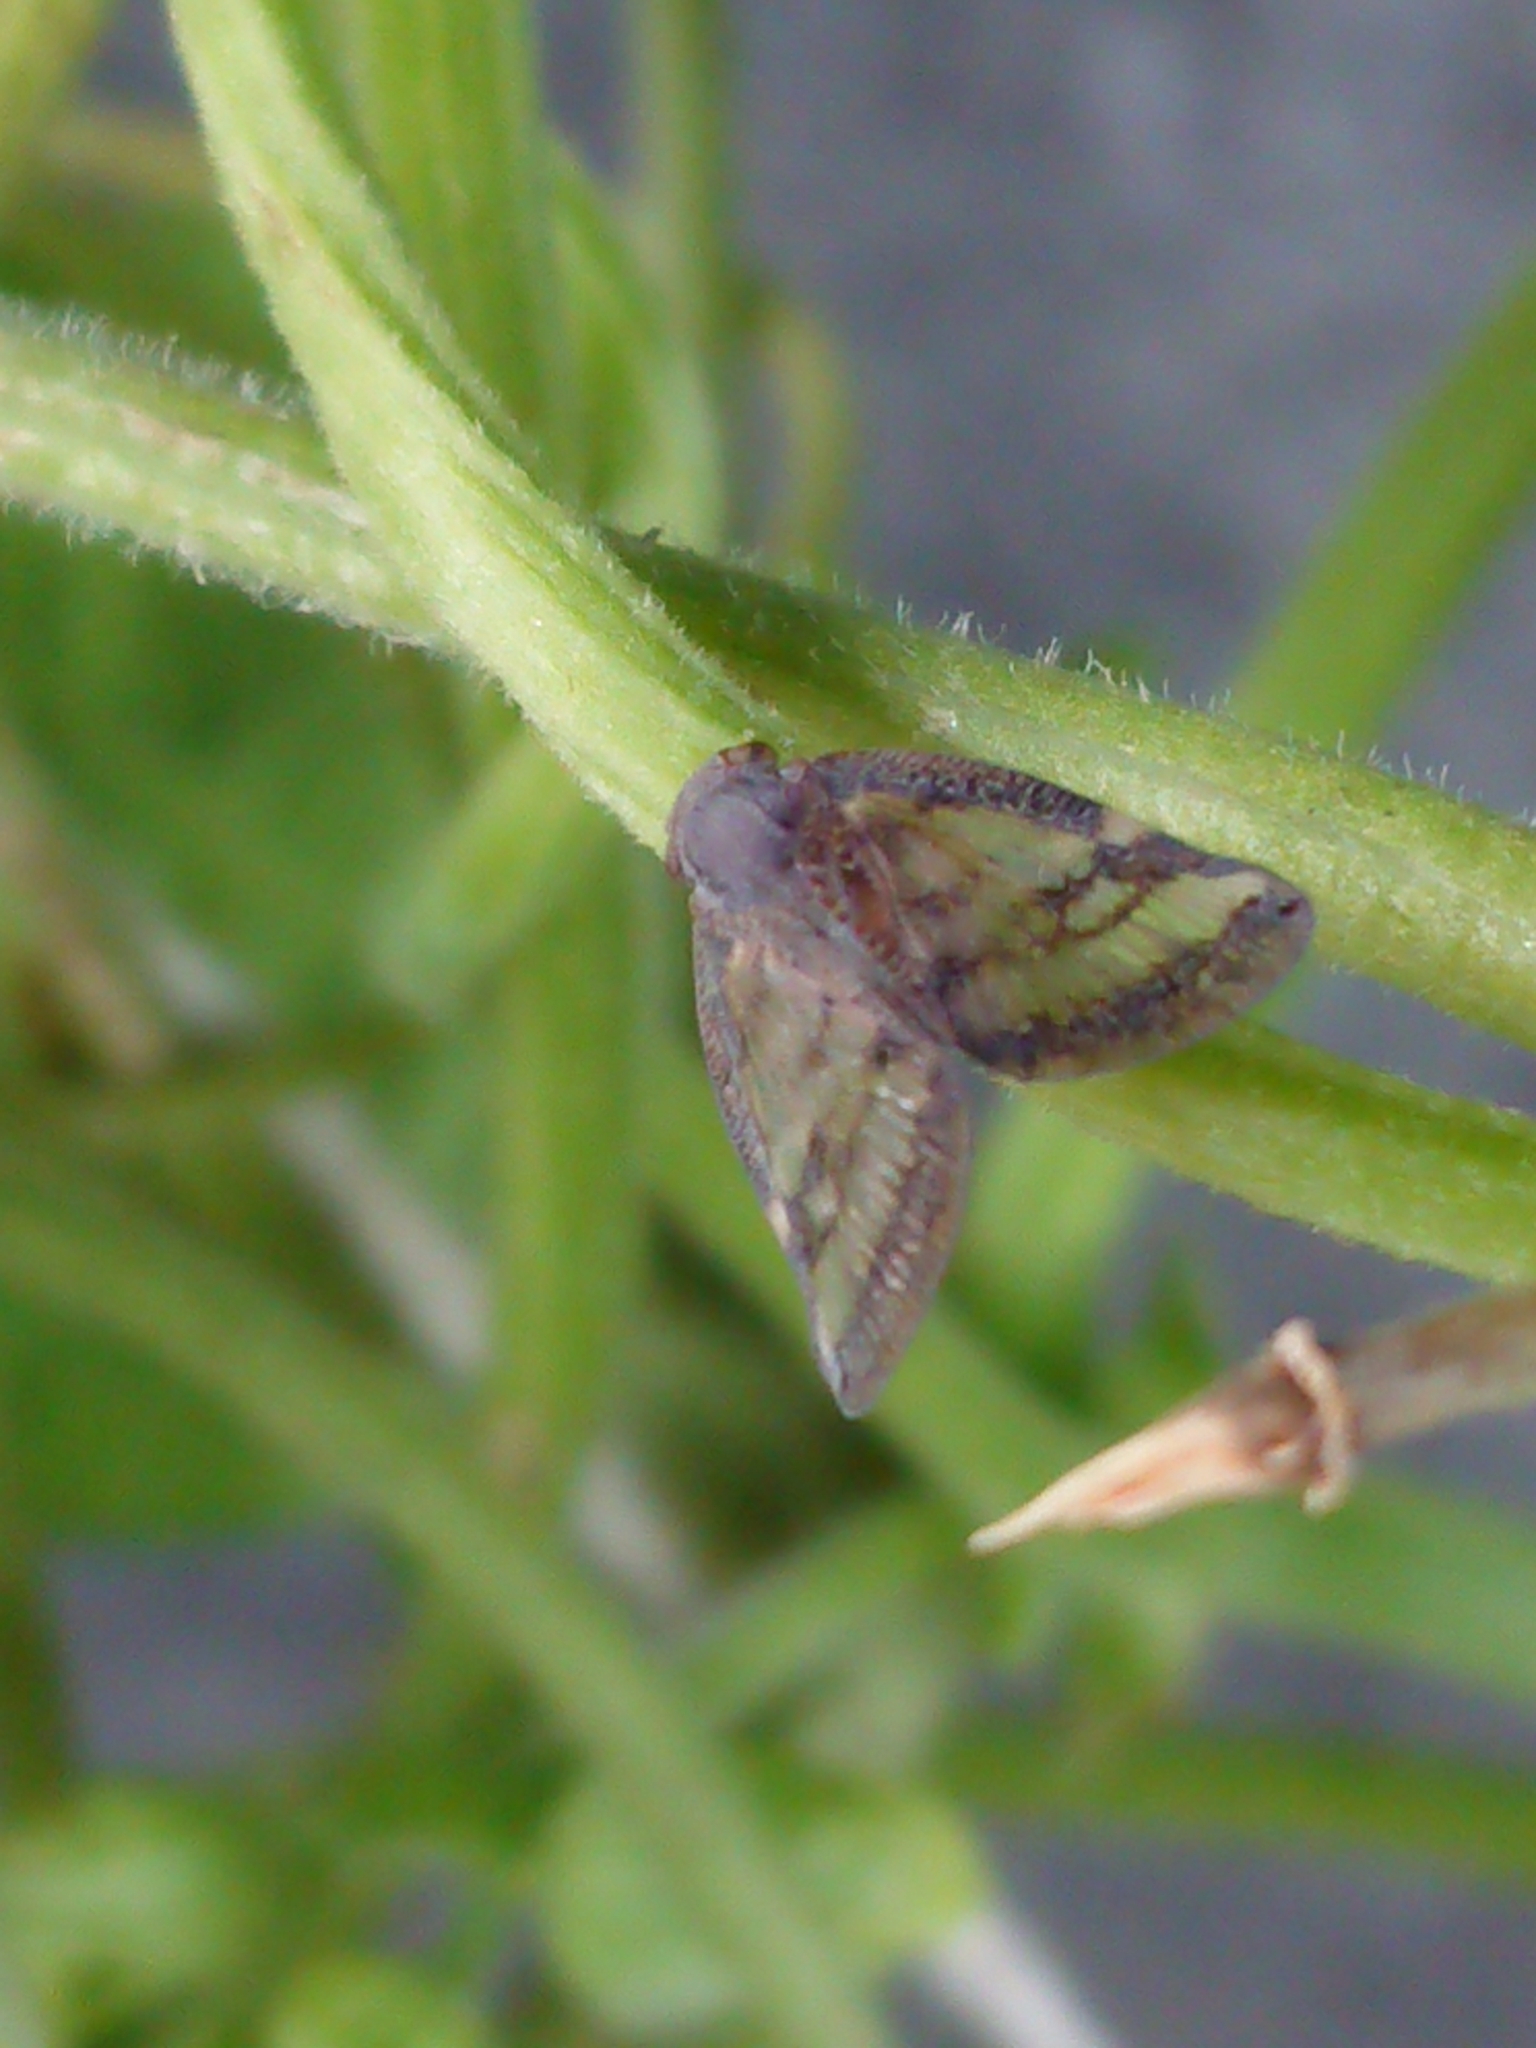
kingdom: Animalia
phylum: Arthropoda
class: Insecta
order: Hemiptera
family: Ricaniidae
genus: Scolypopa
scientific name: Scolypopa australis
